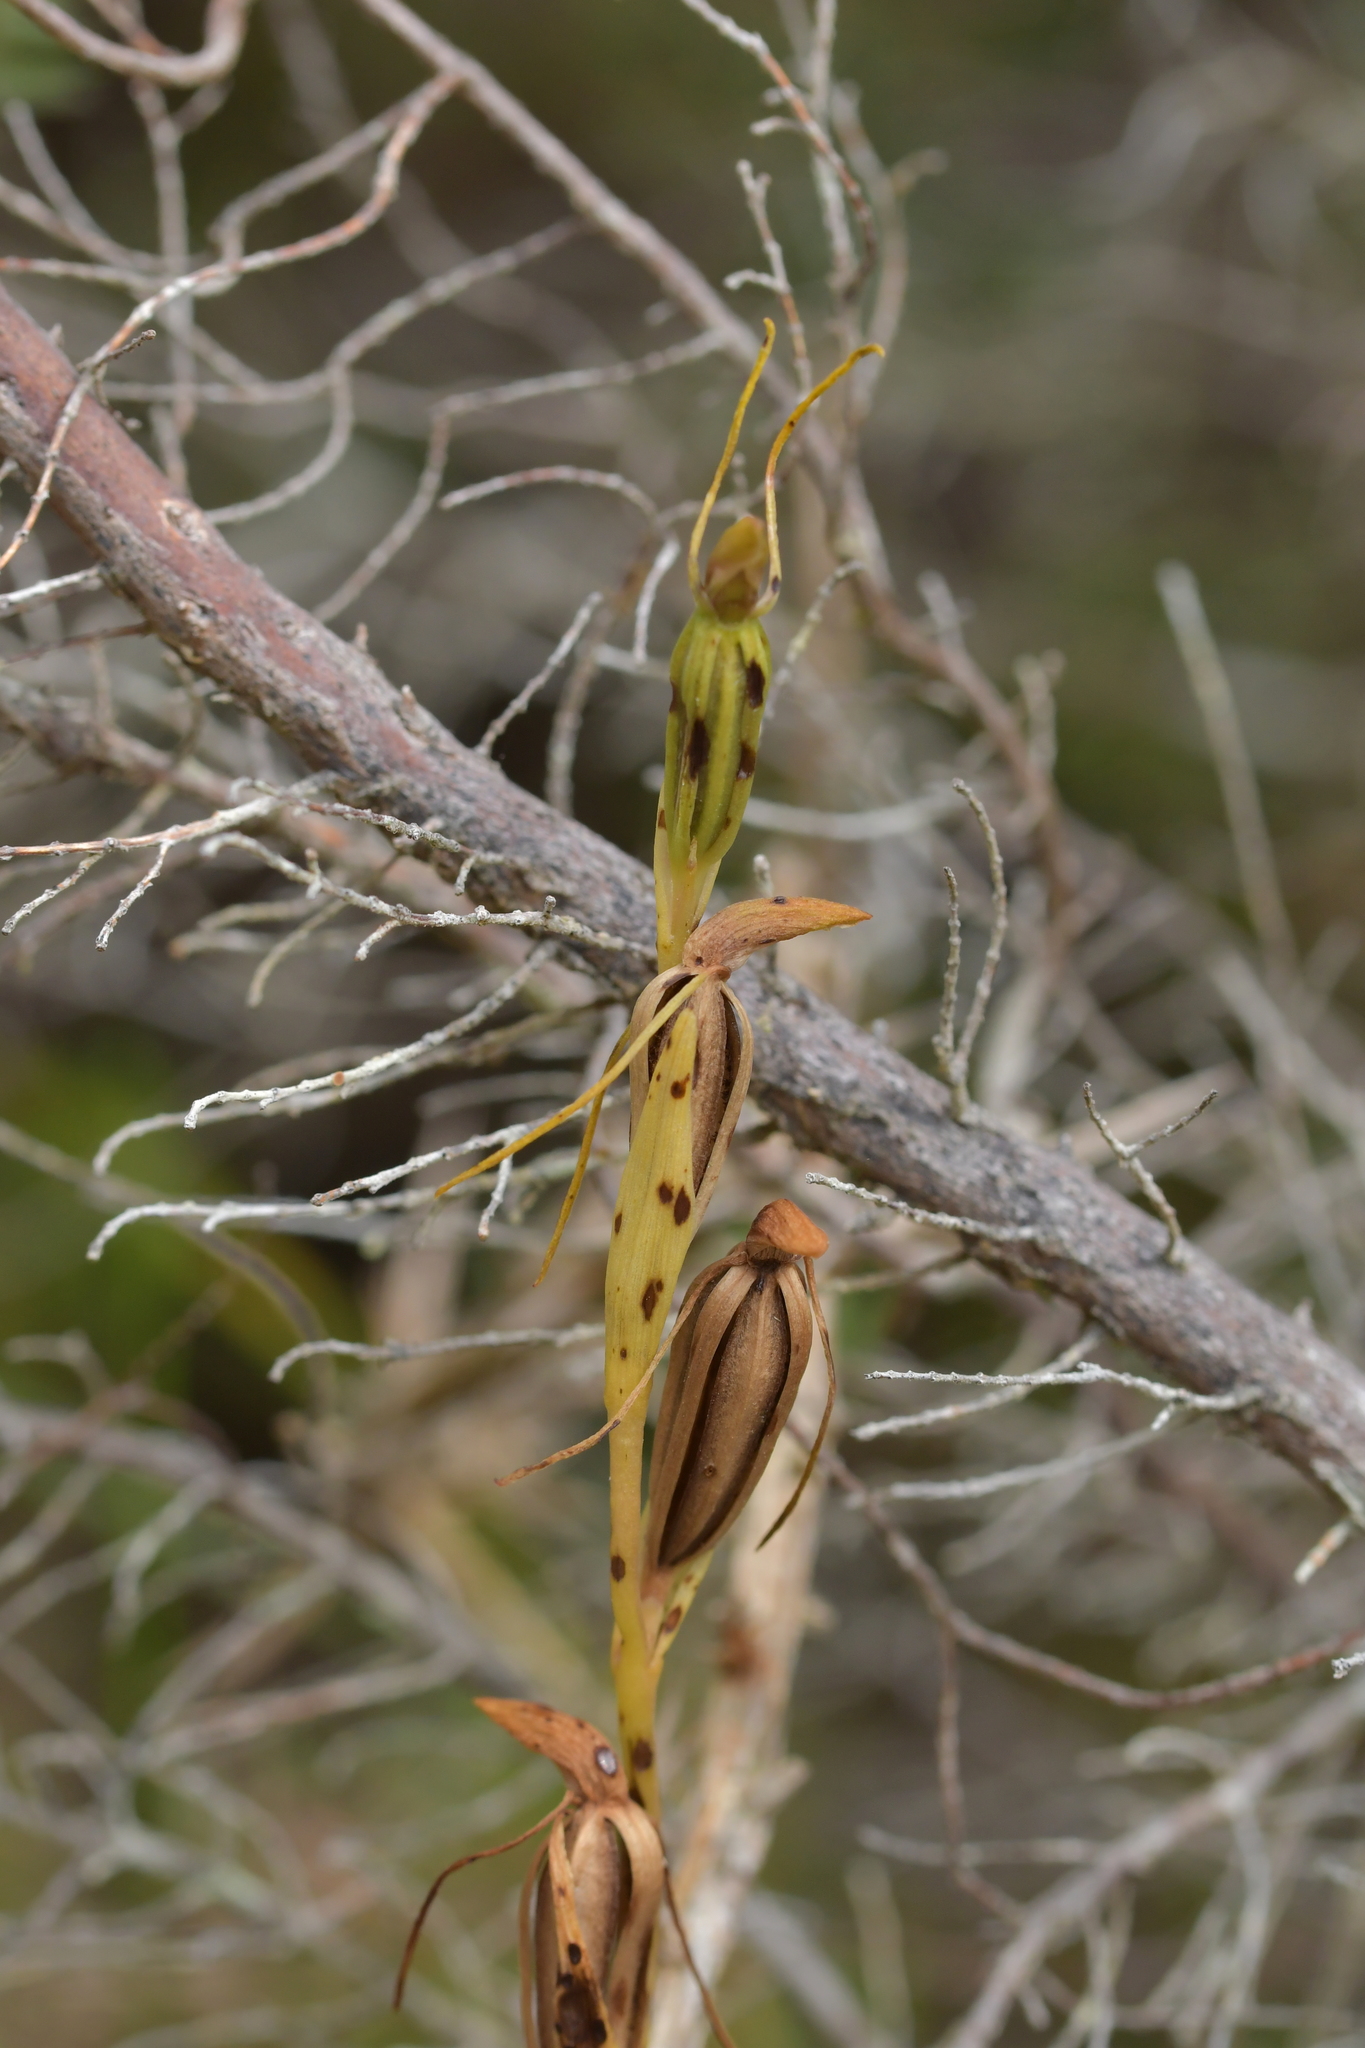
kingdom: Plantae
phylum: Tracheophyta
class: Liliopsida
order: Asparagales
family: Orchidaceae
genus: Orthoceras
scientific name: Orthoceras novae-zeelandiae
